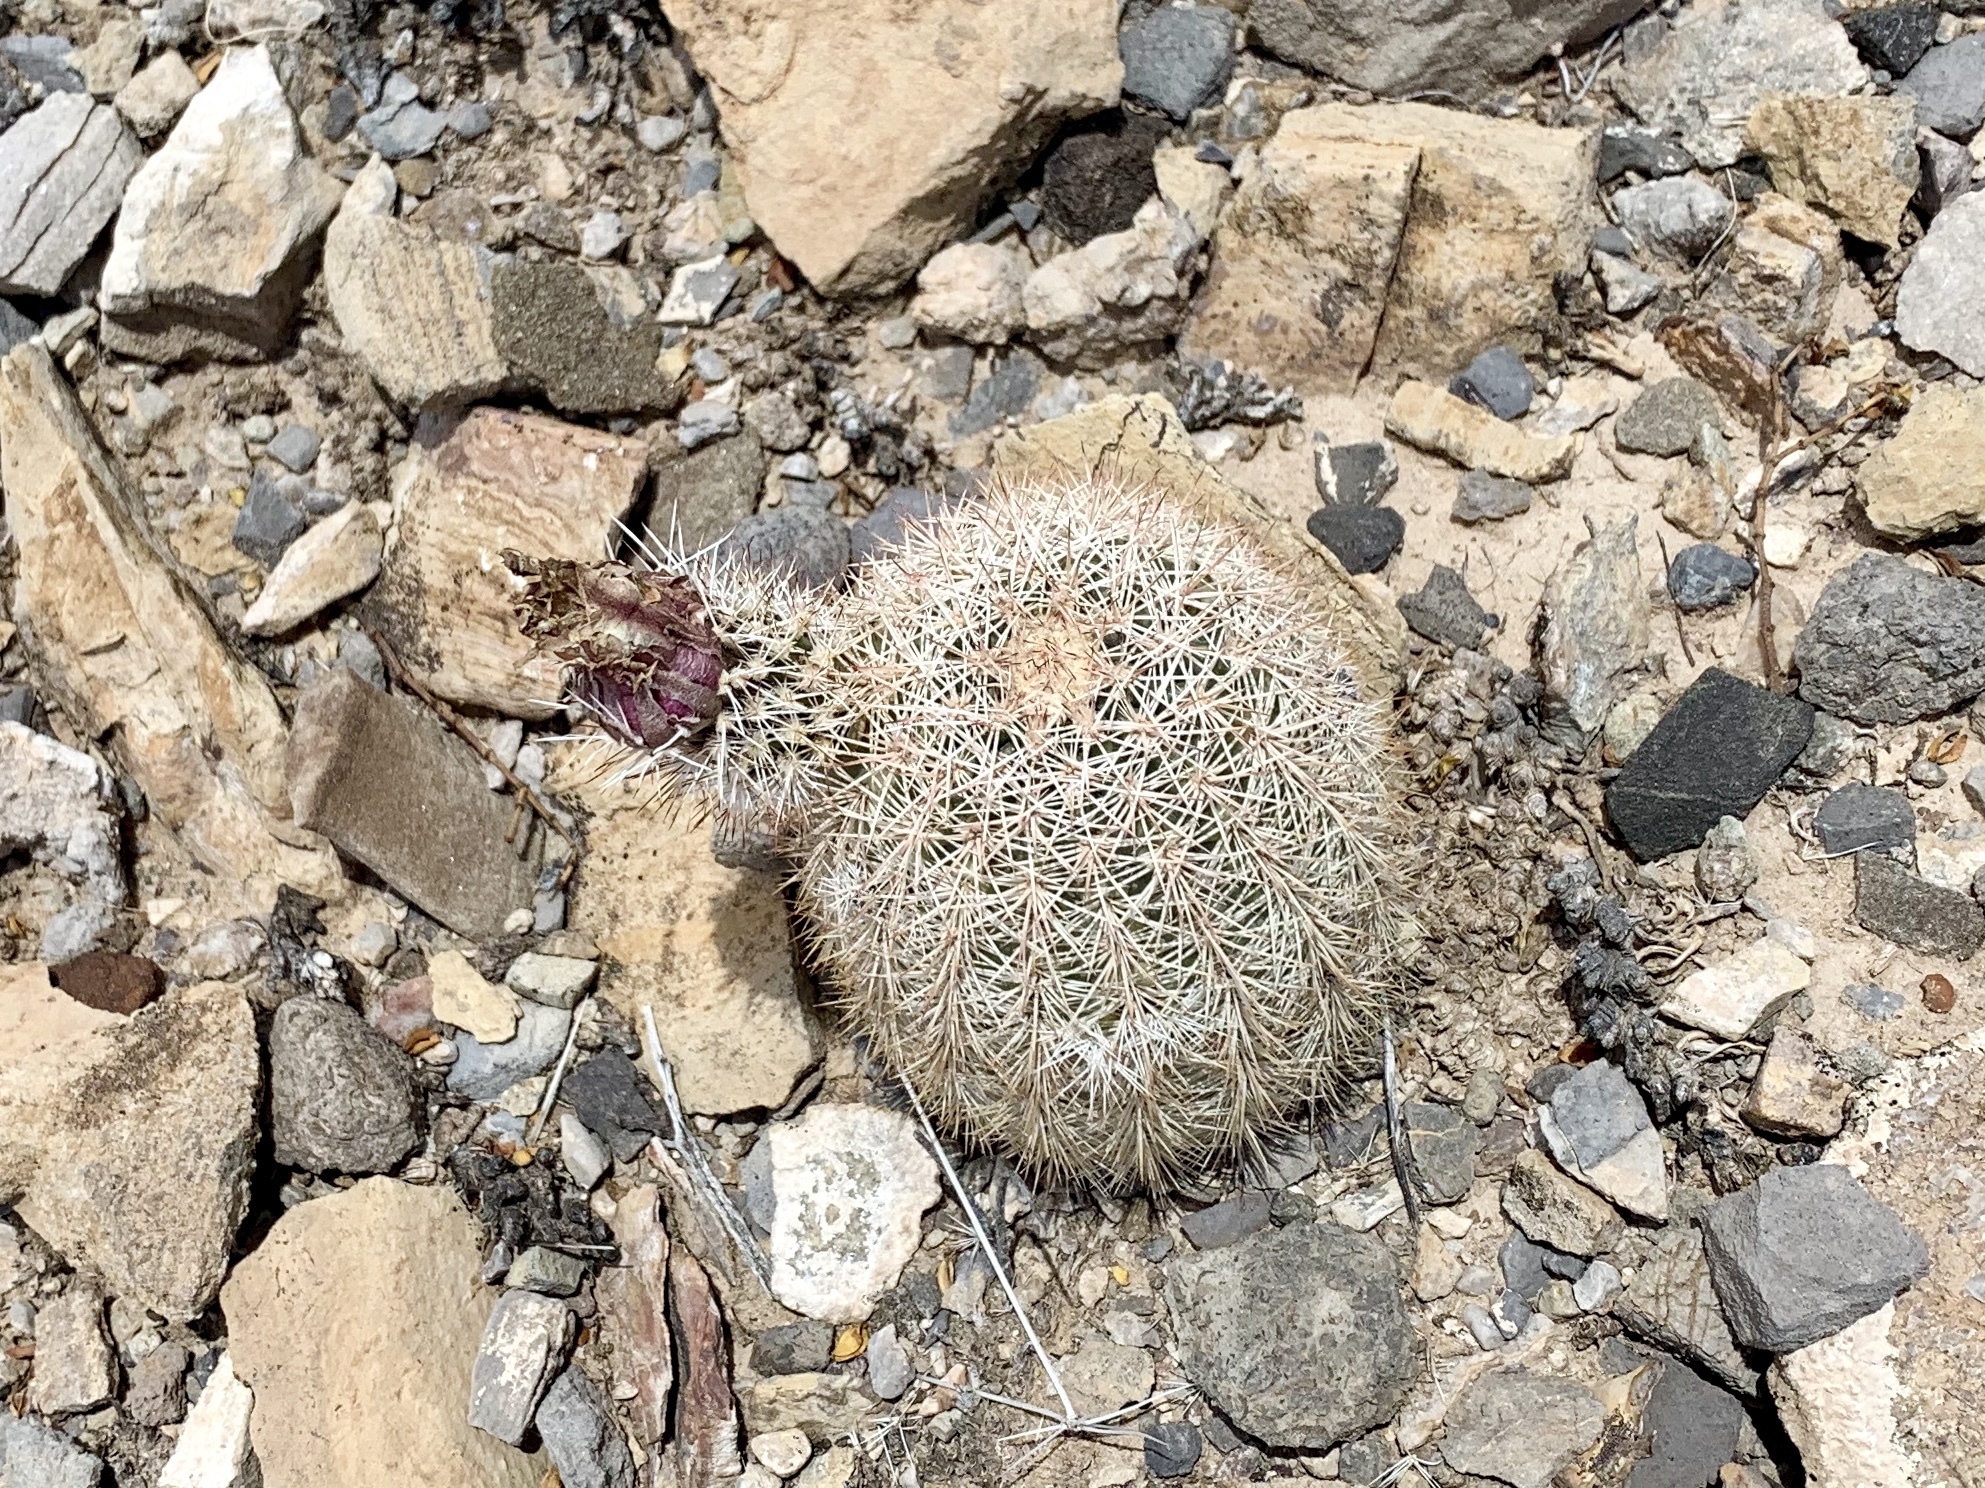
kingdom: Plantae
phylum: Tracheophyta
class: Magnoliopsida
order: Caryophyllales
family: Cactaceae
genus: Echinocereus
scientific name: Echinocereus dasyacanthus
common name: Spiny hedgehog cactus
